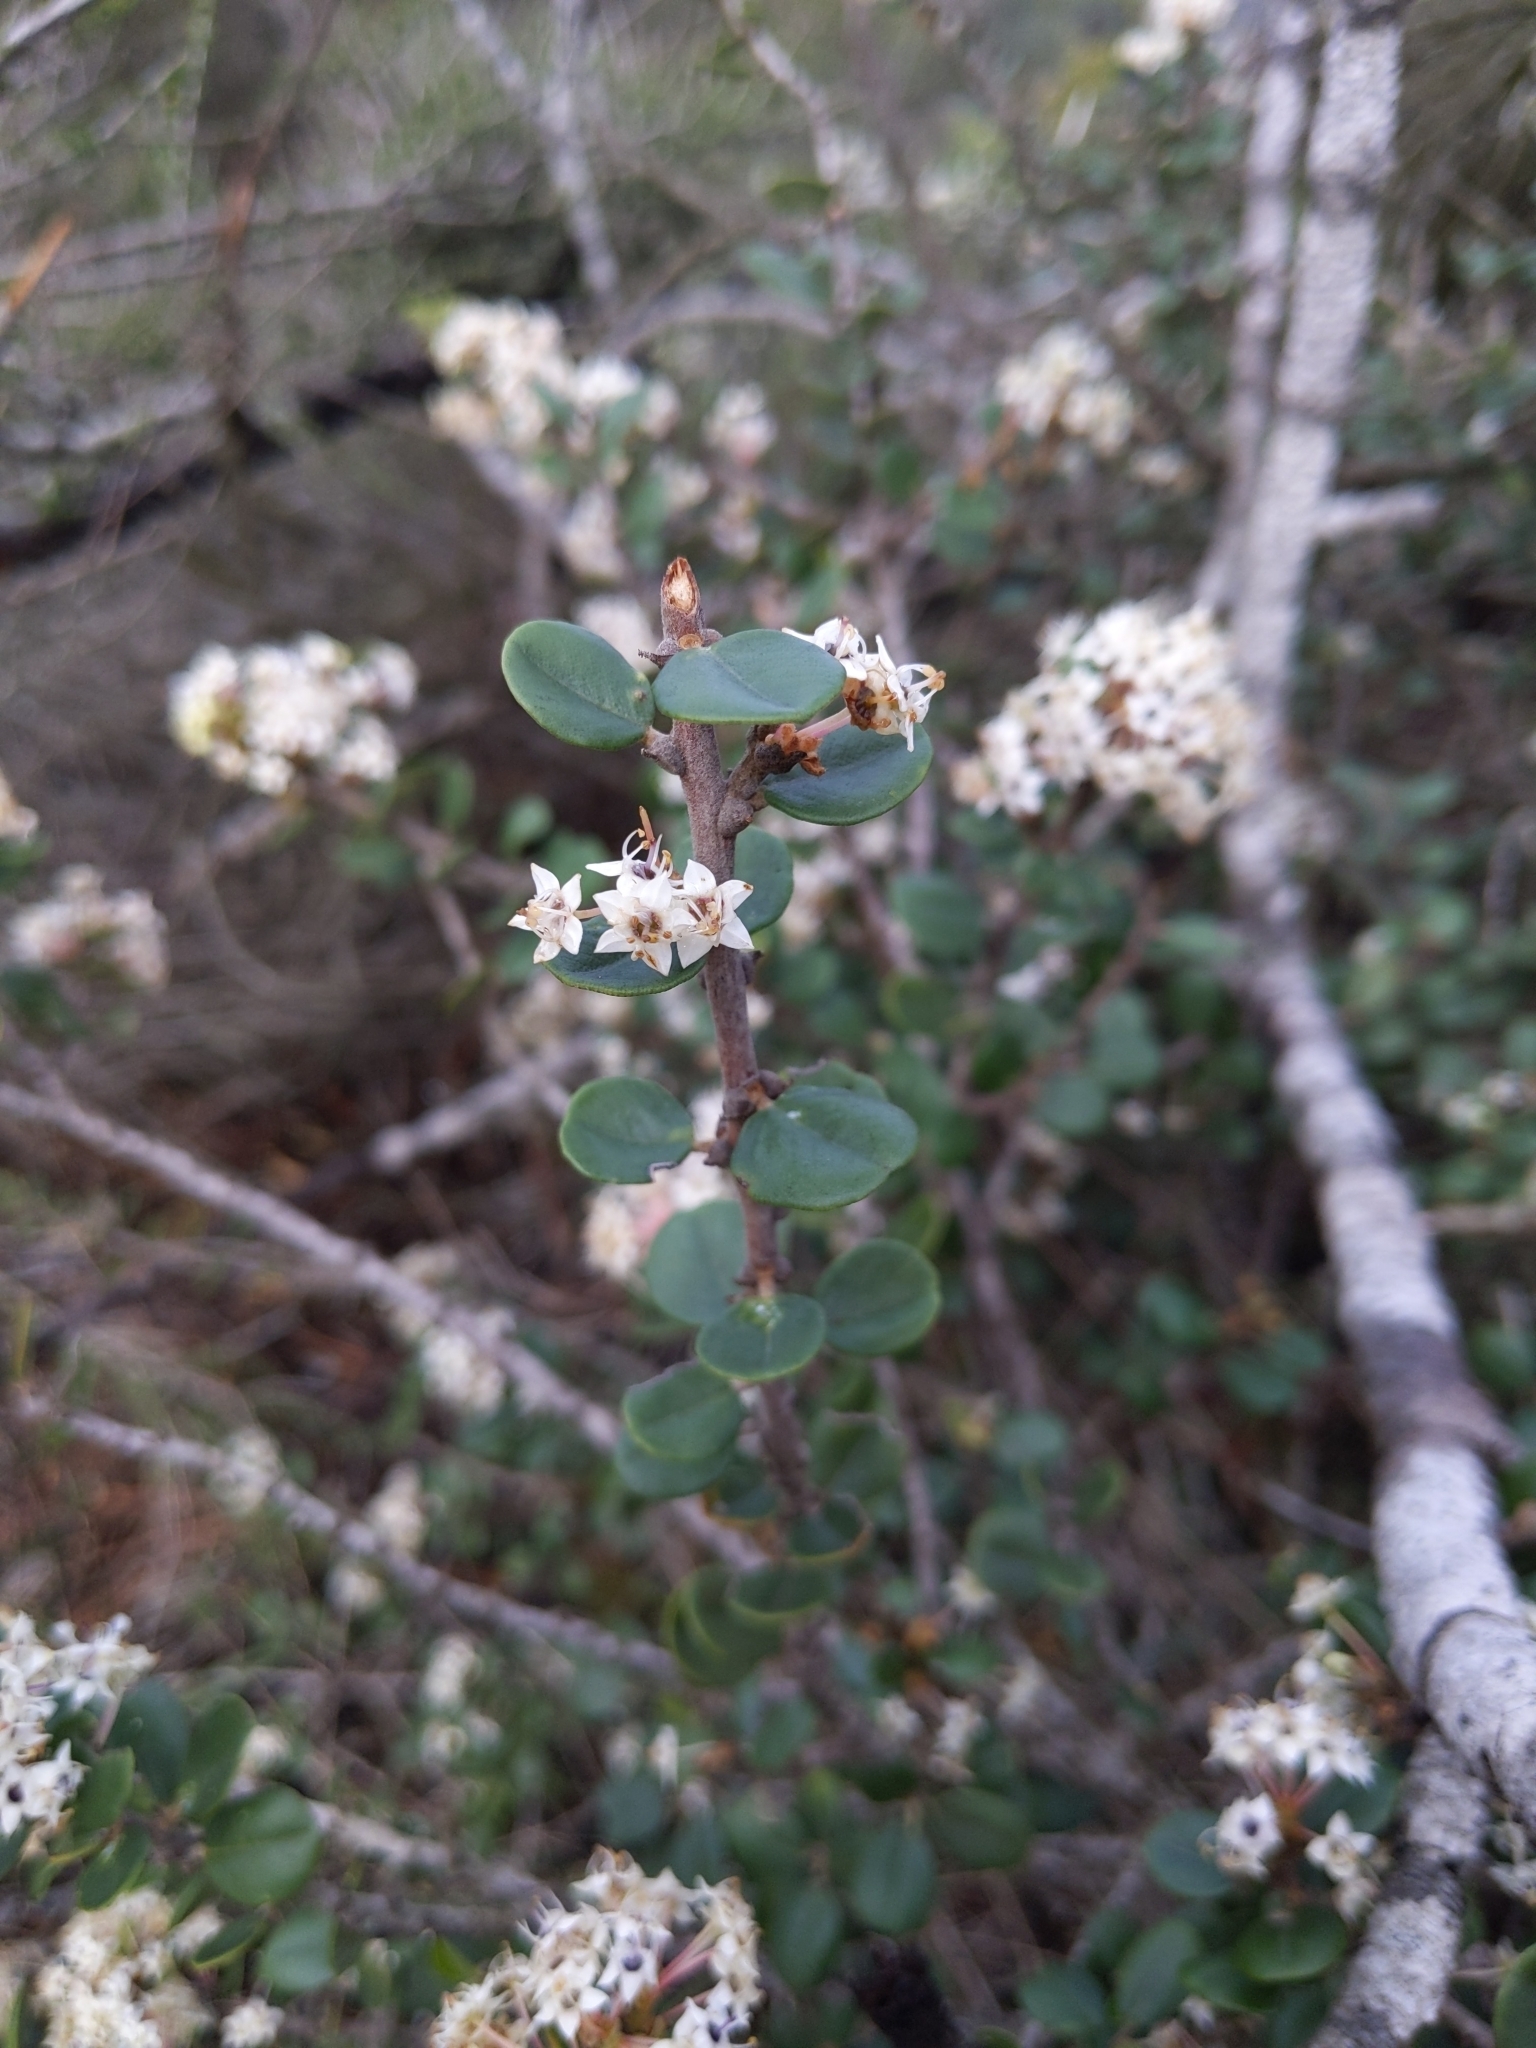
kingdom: Plantae
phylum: Tracheophyta
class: Magnoliopsida
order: Rosales
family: Rhamnaceae
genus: Ceanothus
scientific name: Ceanothus verrucosus
